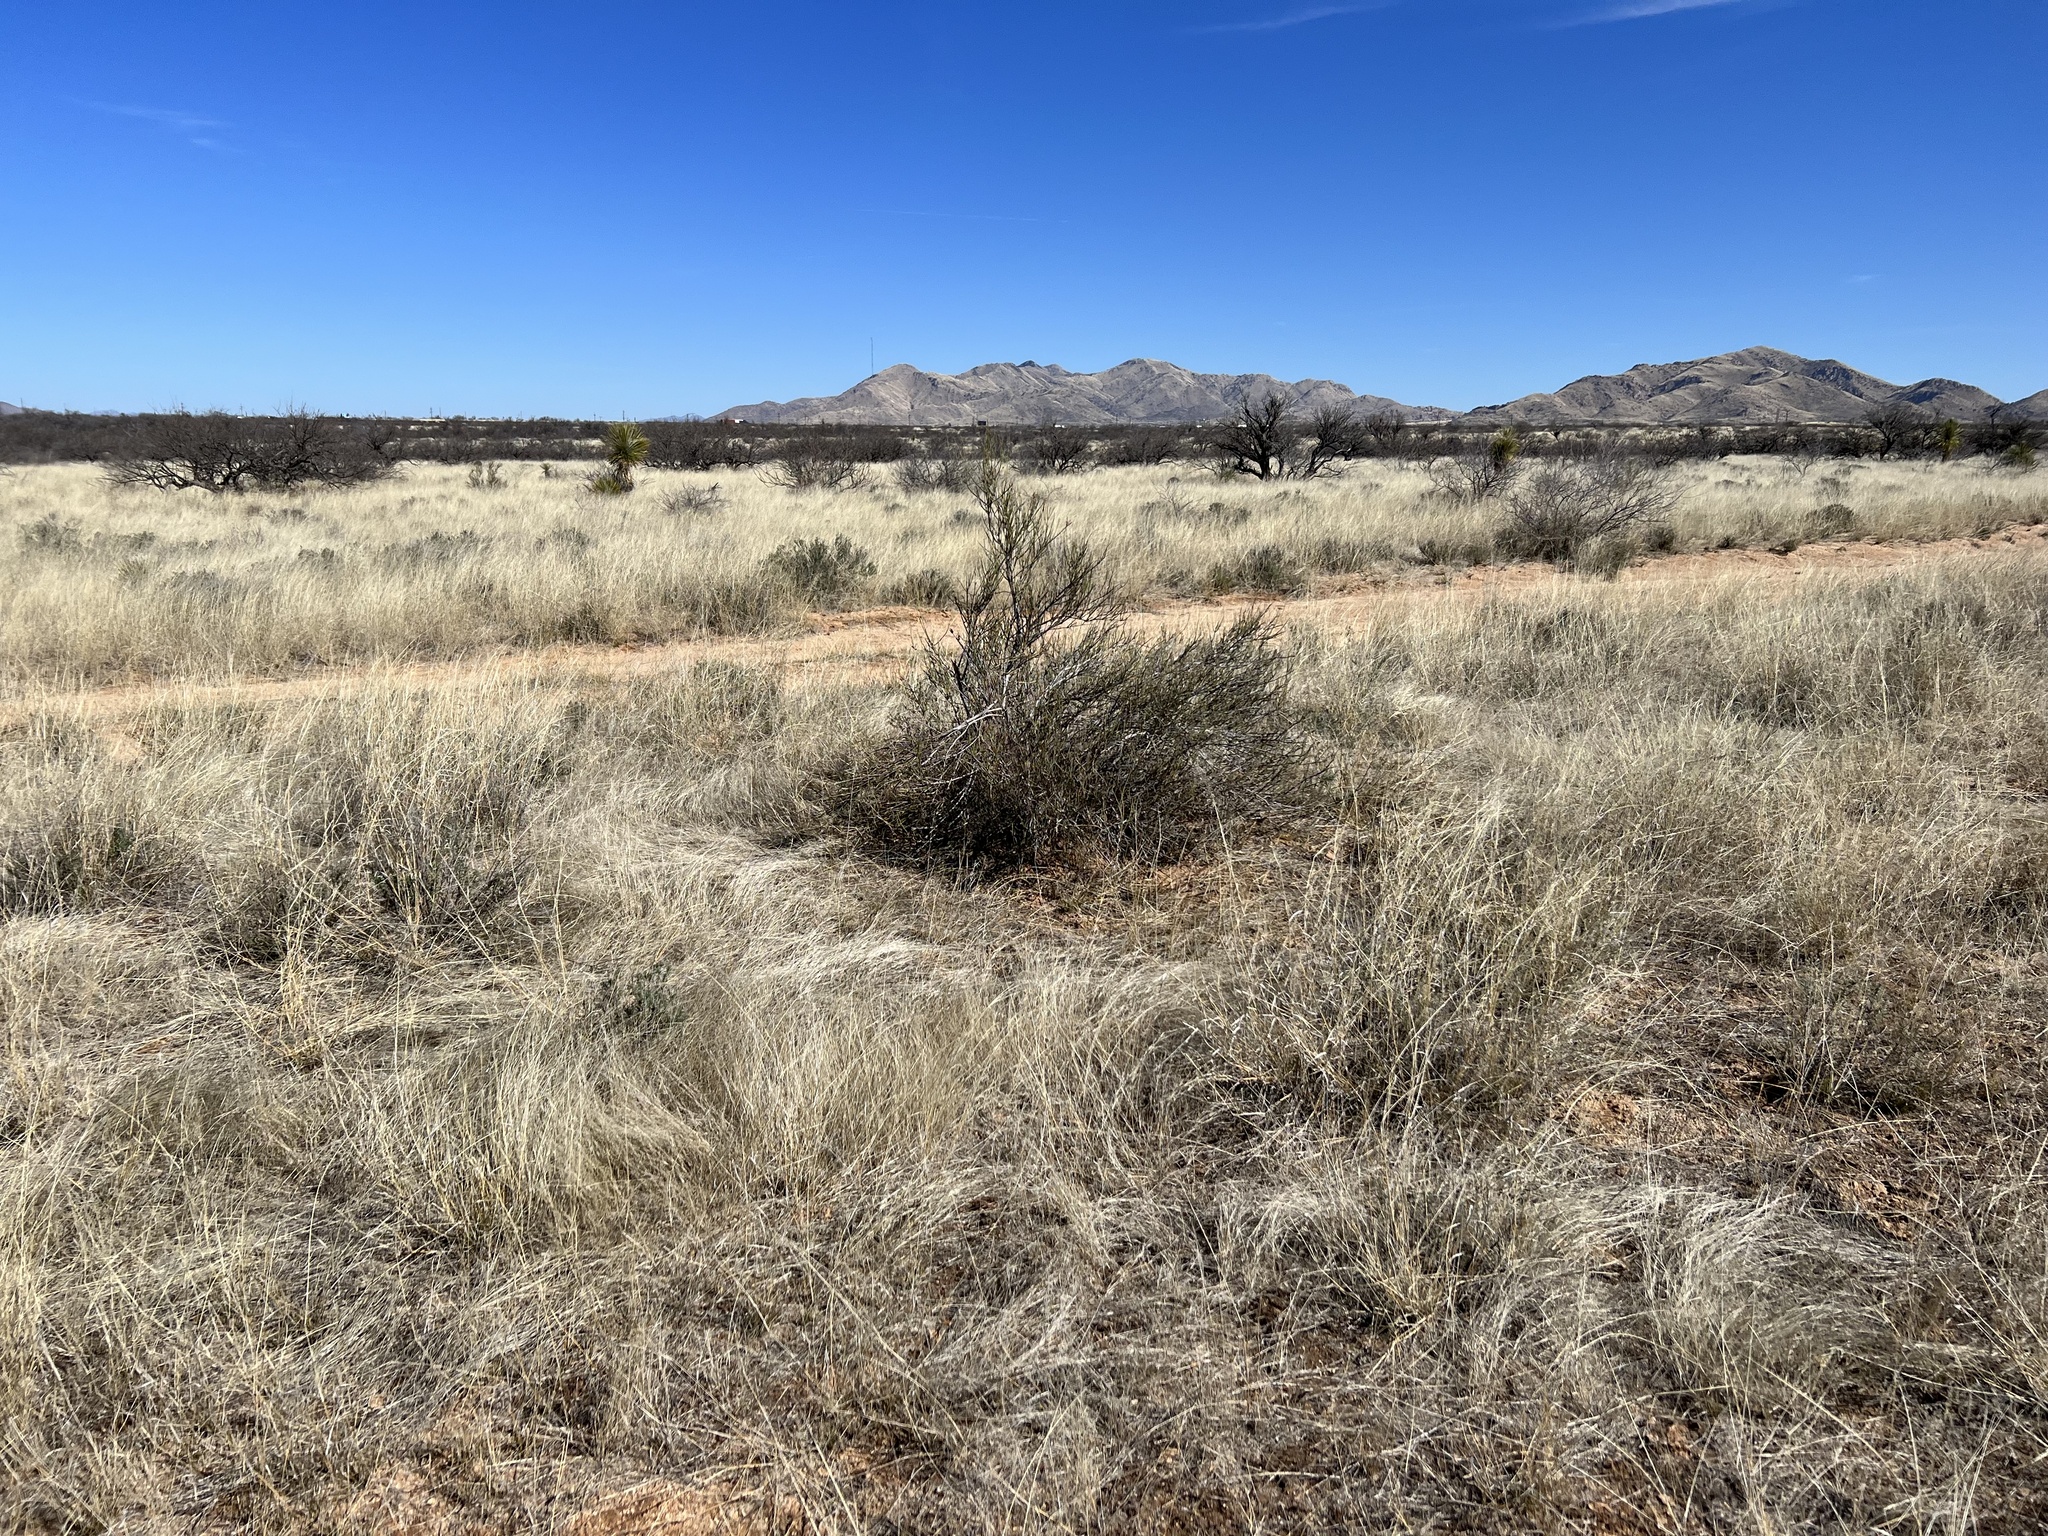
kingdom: Plantae
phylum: Tracheophyta
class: Gnetopsida
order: Ephedrales
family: Ephedraceae
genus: Ephedra
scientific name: Ephedra trifurca
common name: Mexican-tea
